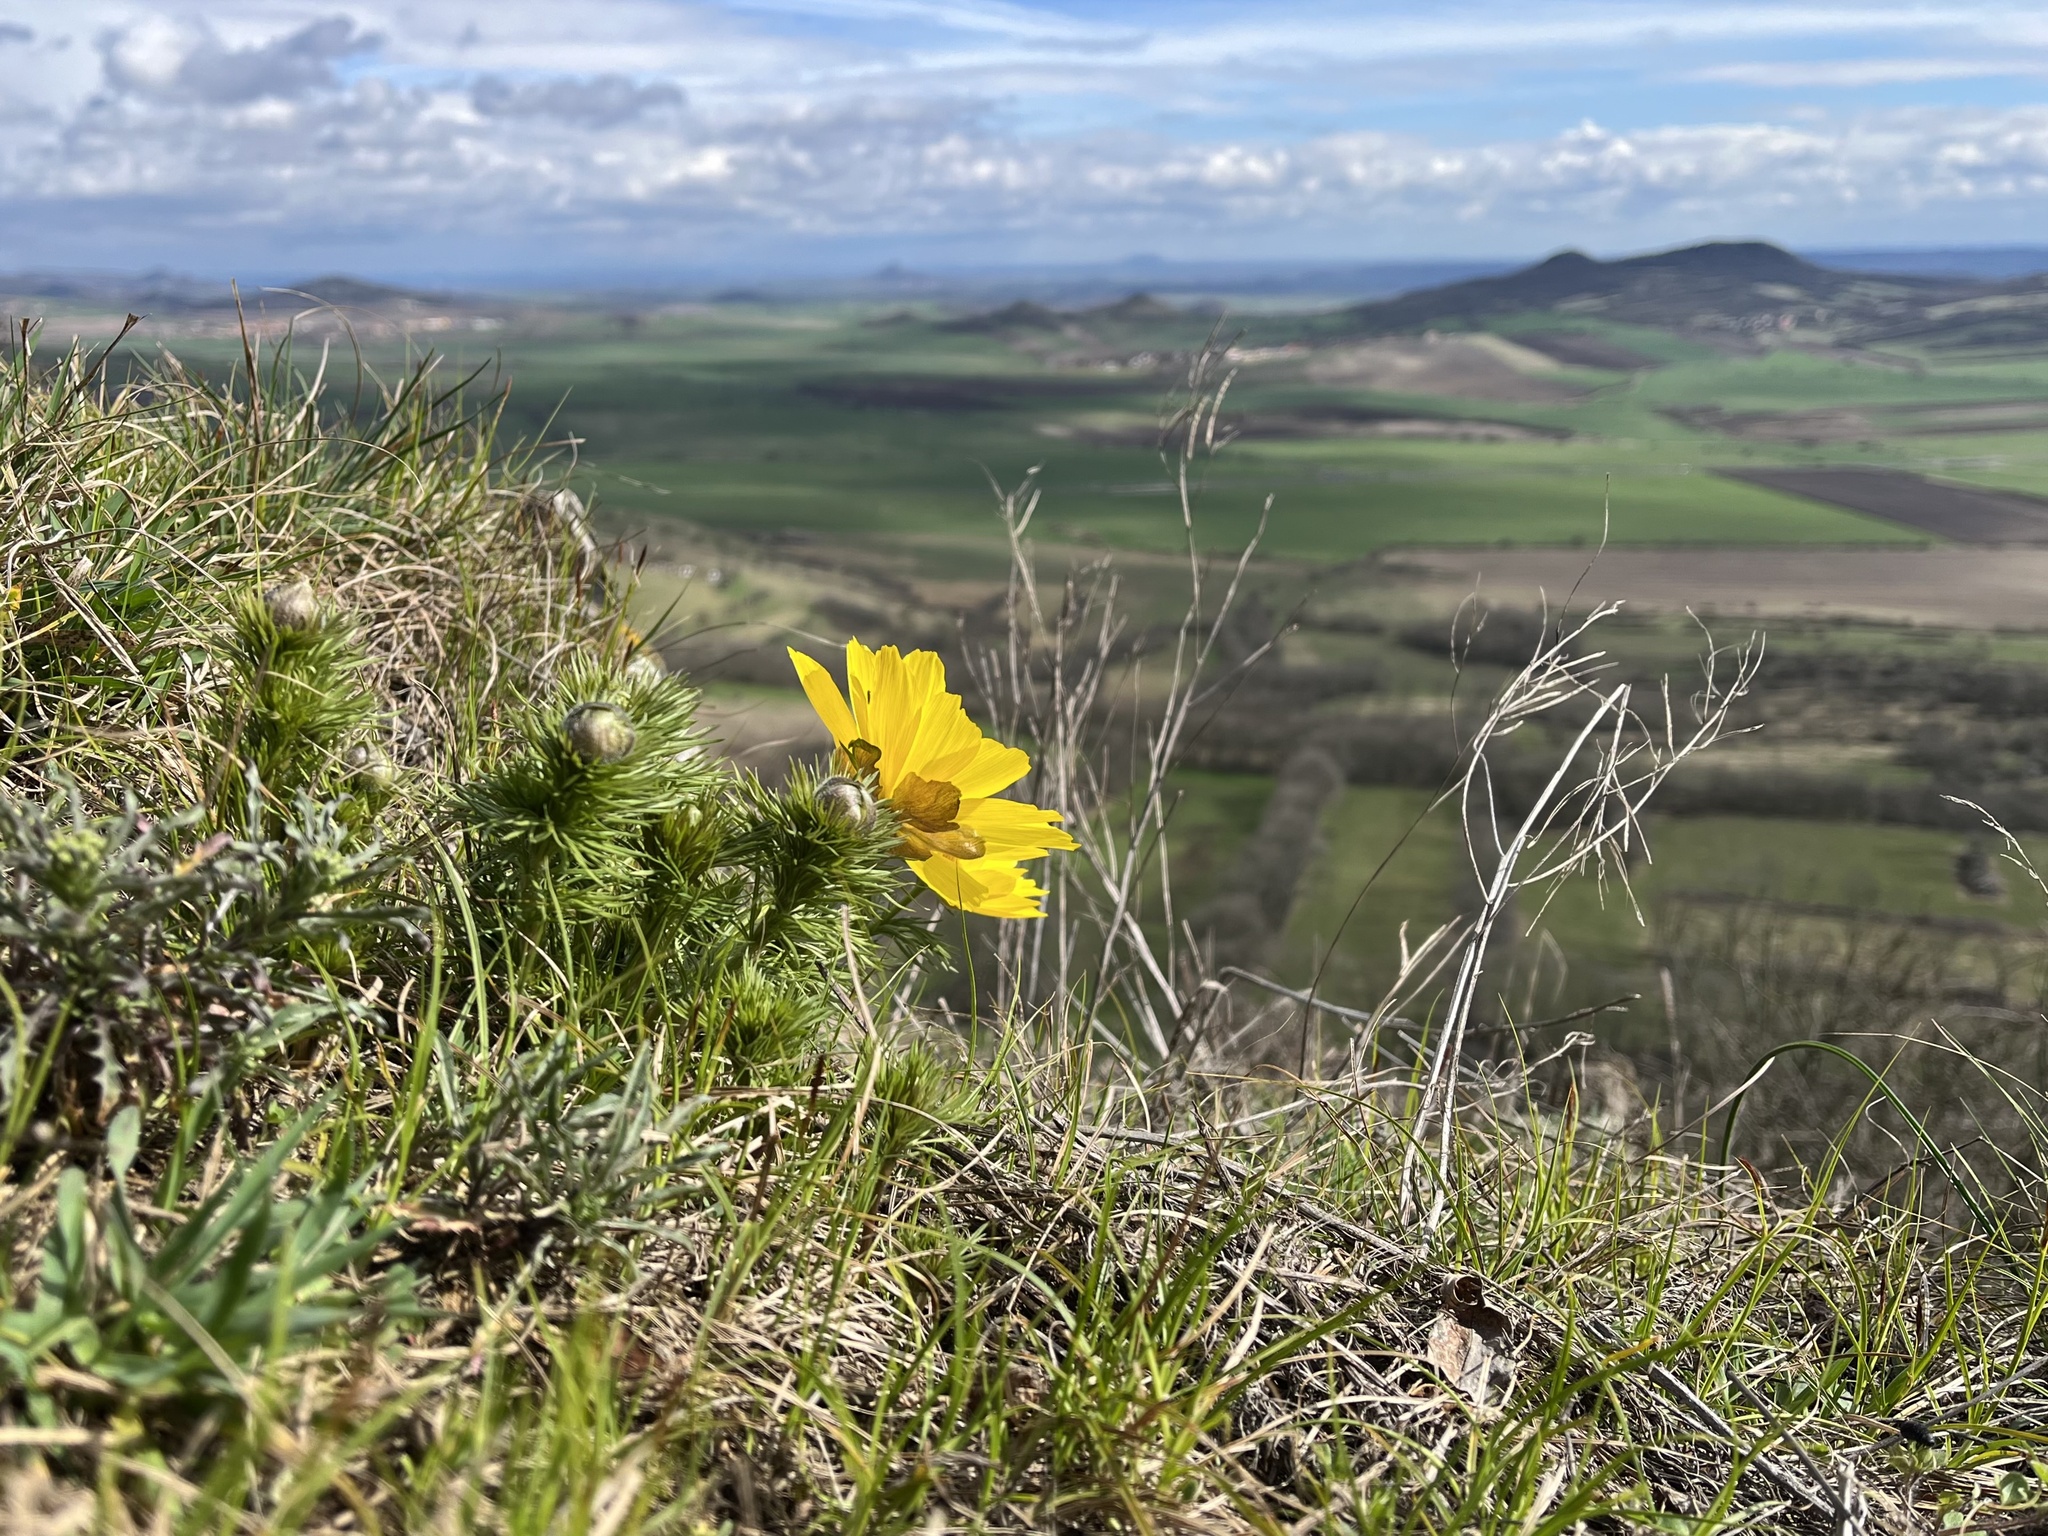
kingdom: Plantae
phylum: Tracheophyta
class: Magnoliopsida
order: Ranunculales
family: Ranunculaceae
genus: Adonis
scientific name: Adonis vernalis
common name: Yellow pheasants-eye
